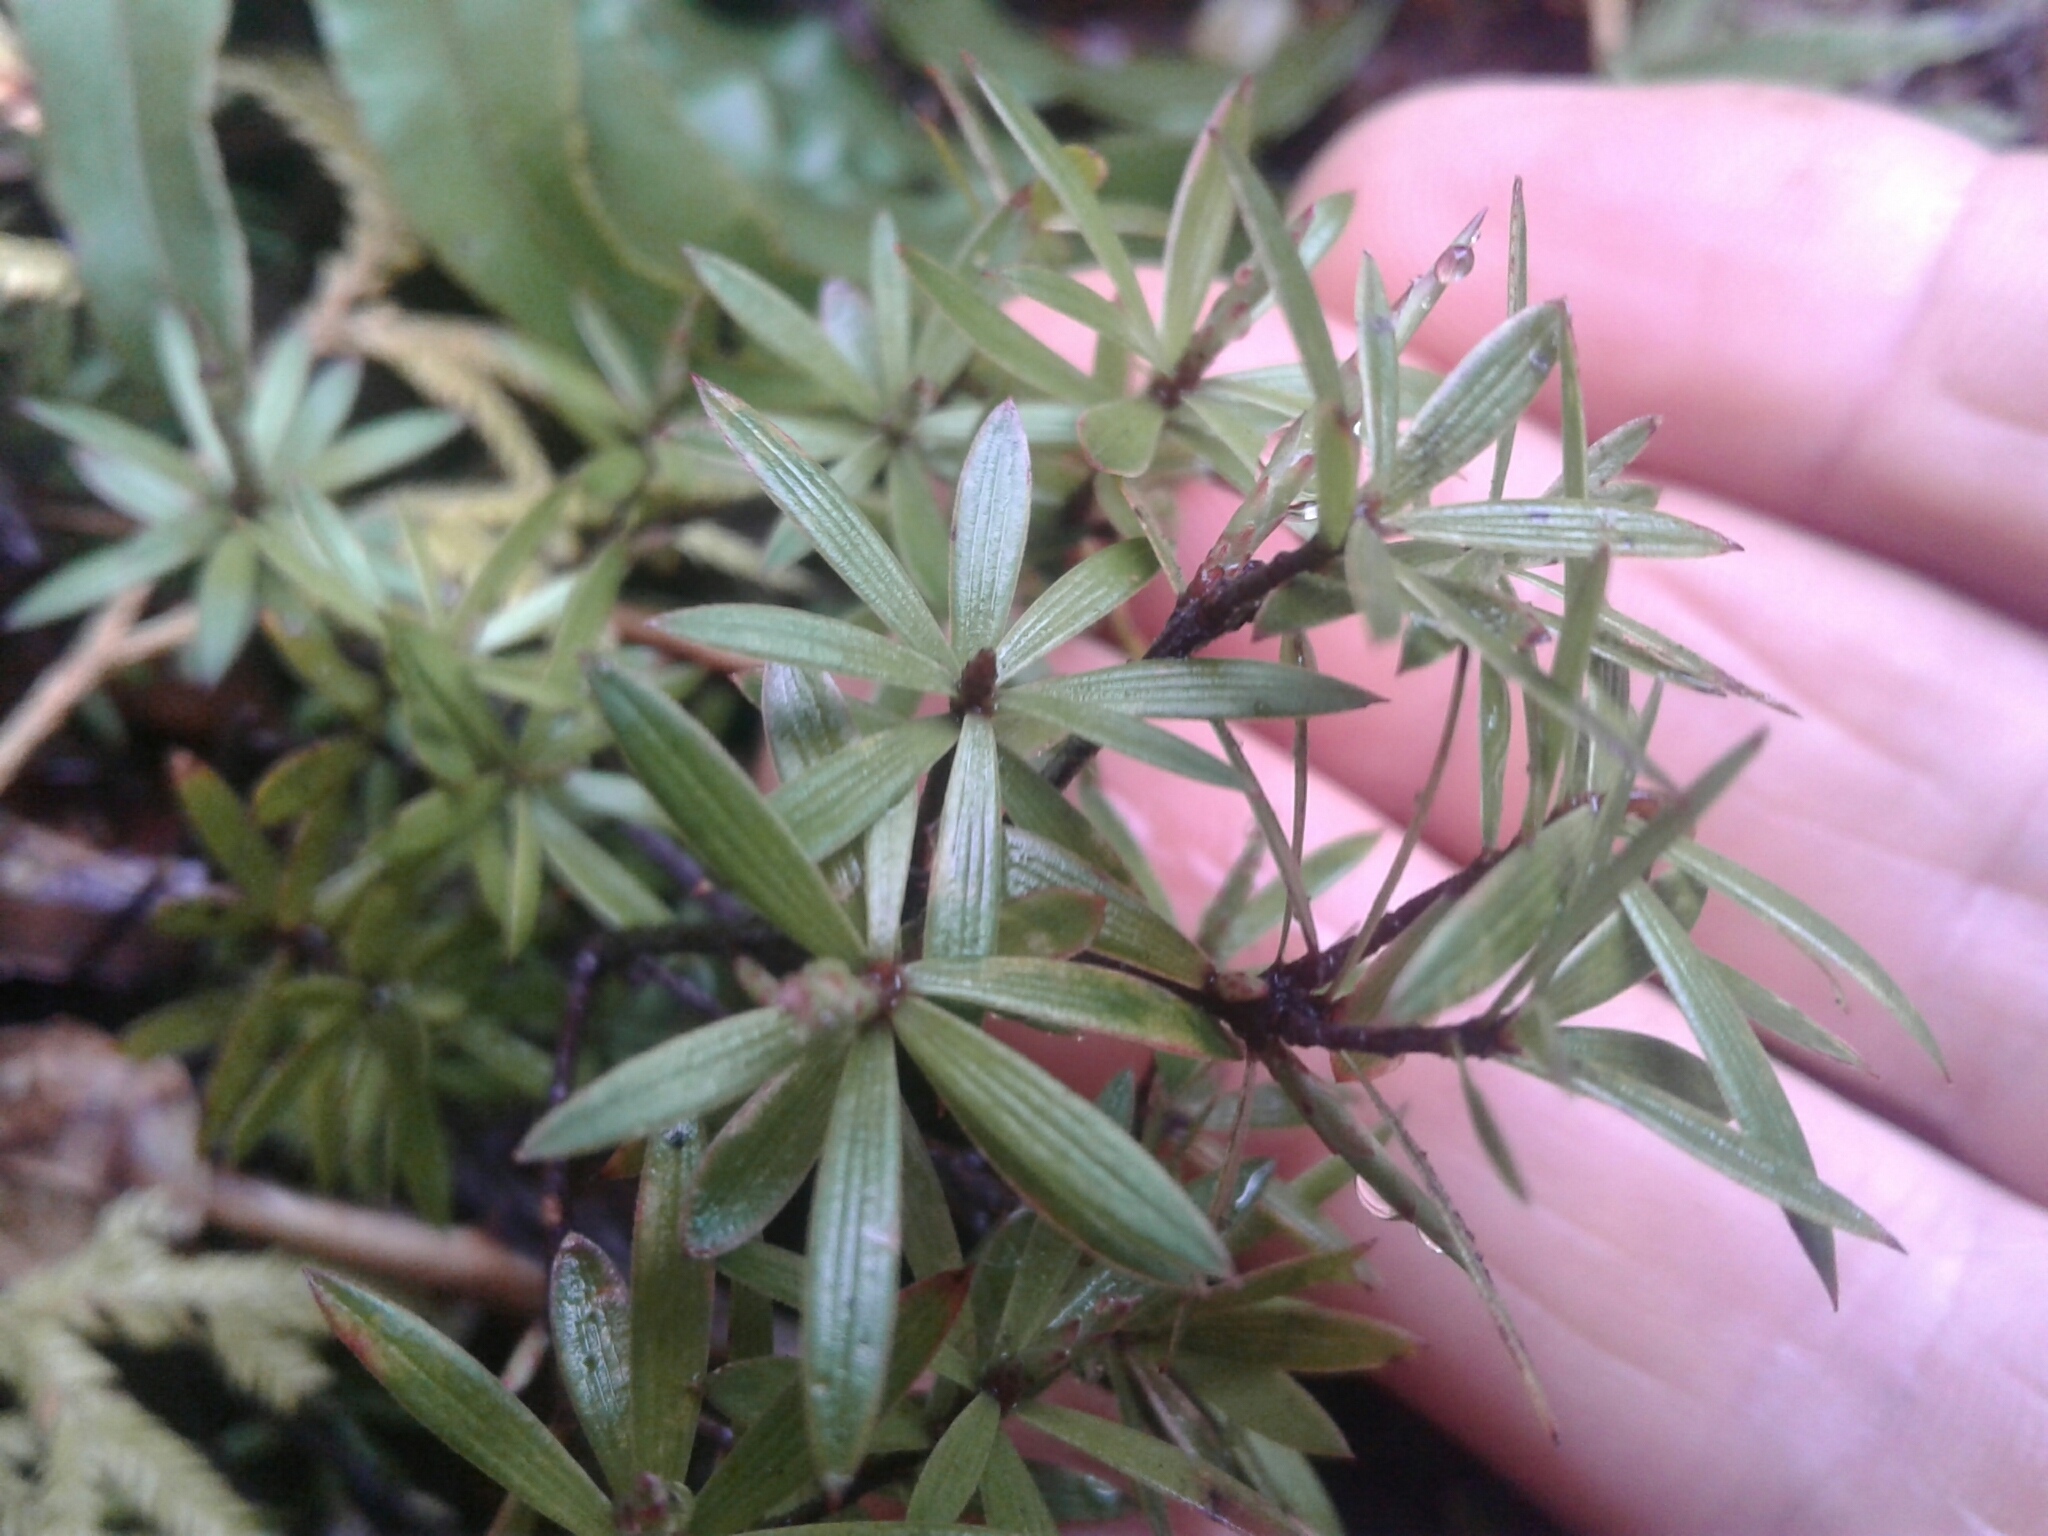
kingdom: Plantae
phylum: Tracheophyta
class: Magnoliopsida
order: Ericales
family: Ericaceae
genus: Leucopogon
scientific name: Leucopogon fasciculatus
